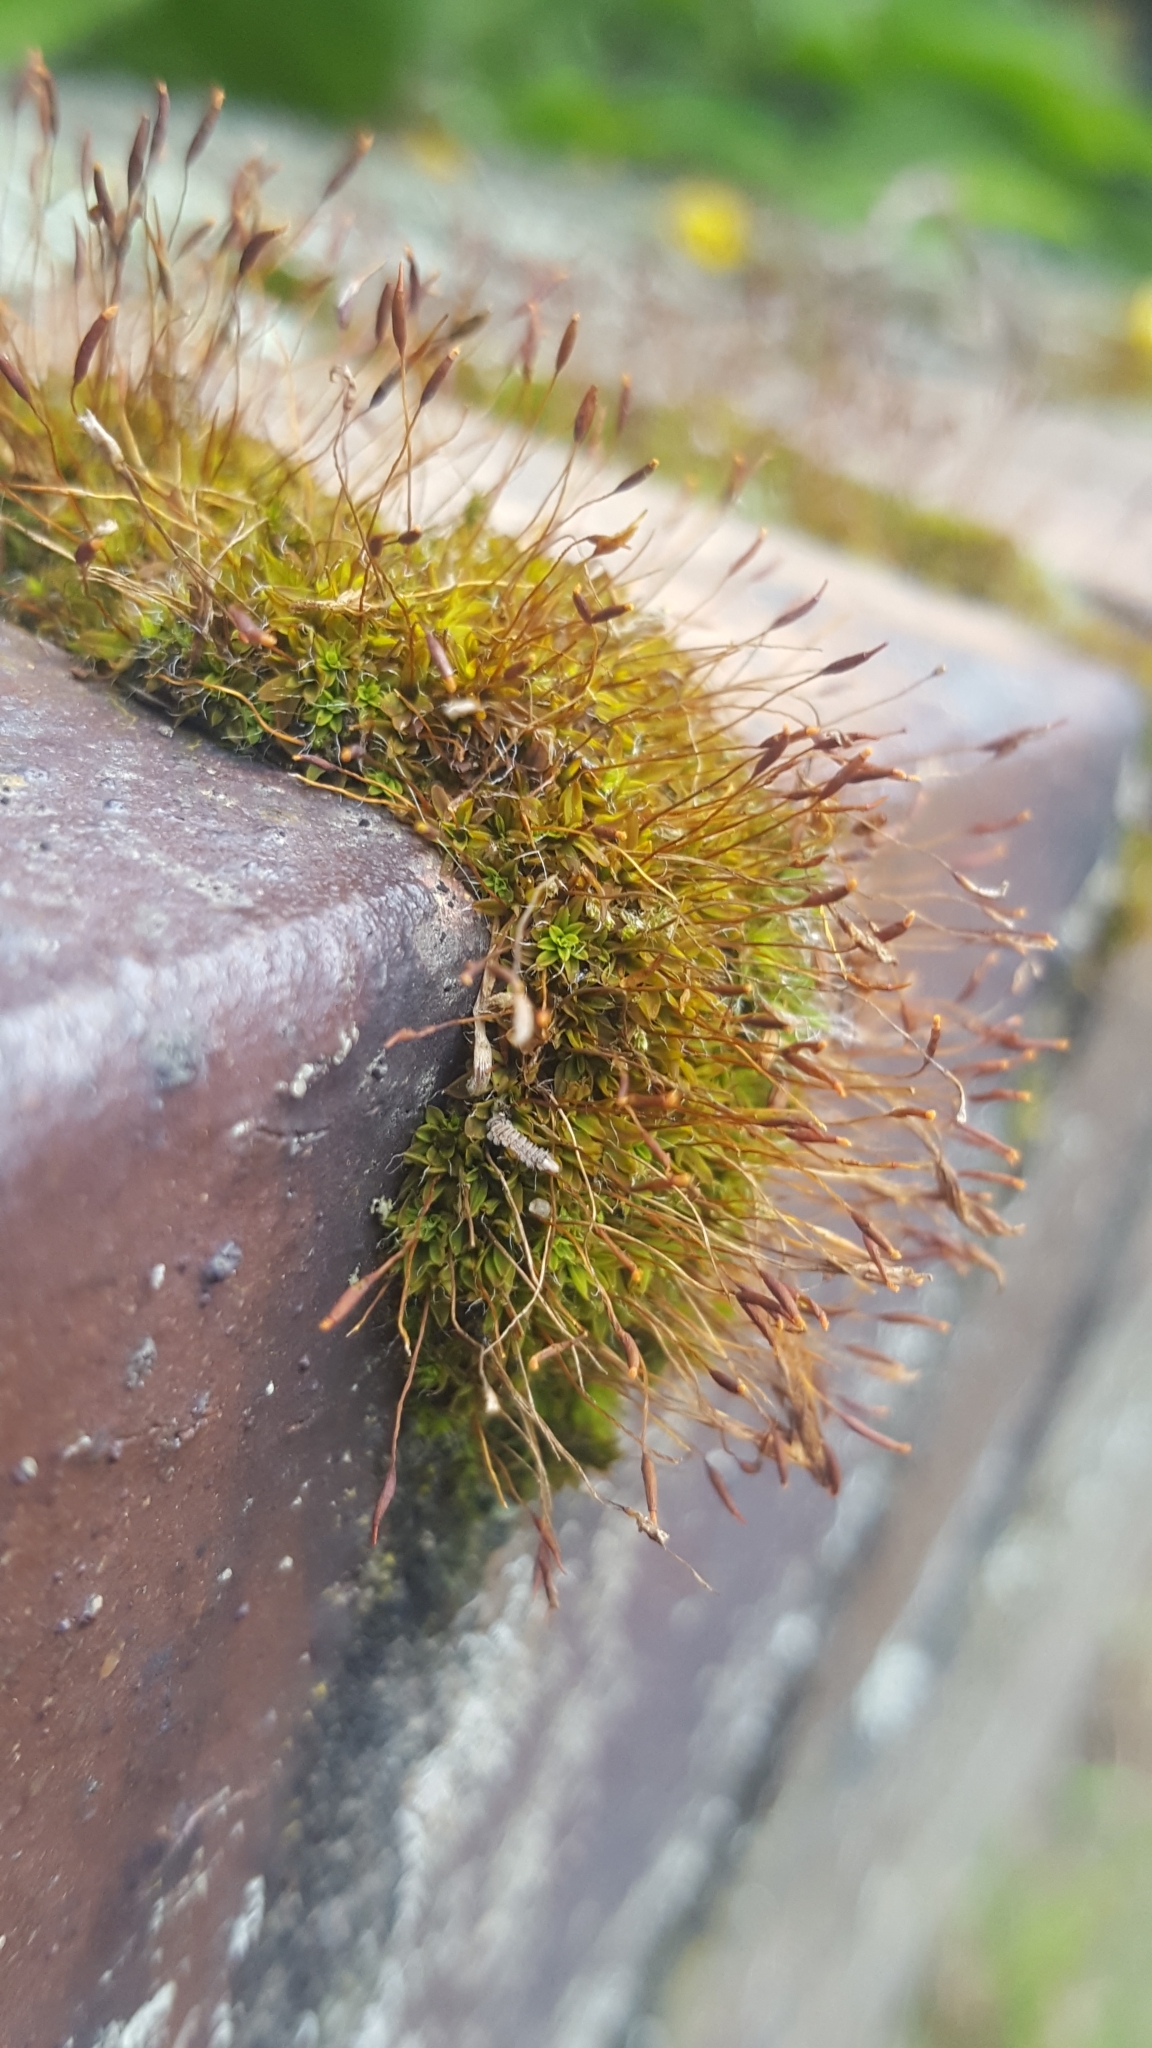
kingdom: Plantae
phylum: Bryophyta
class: Bryopsida
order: Pottiales
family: Pottiaceae
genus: Tortula
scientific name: Tortula muralis
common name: Wall screw-moss
